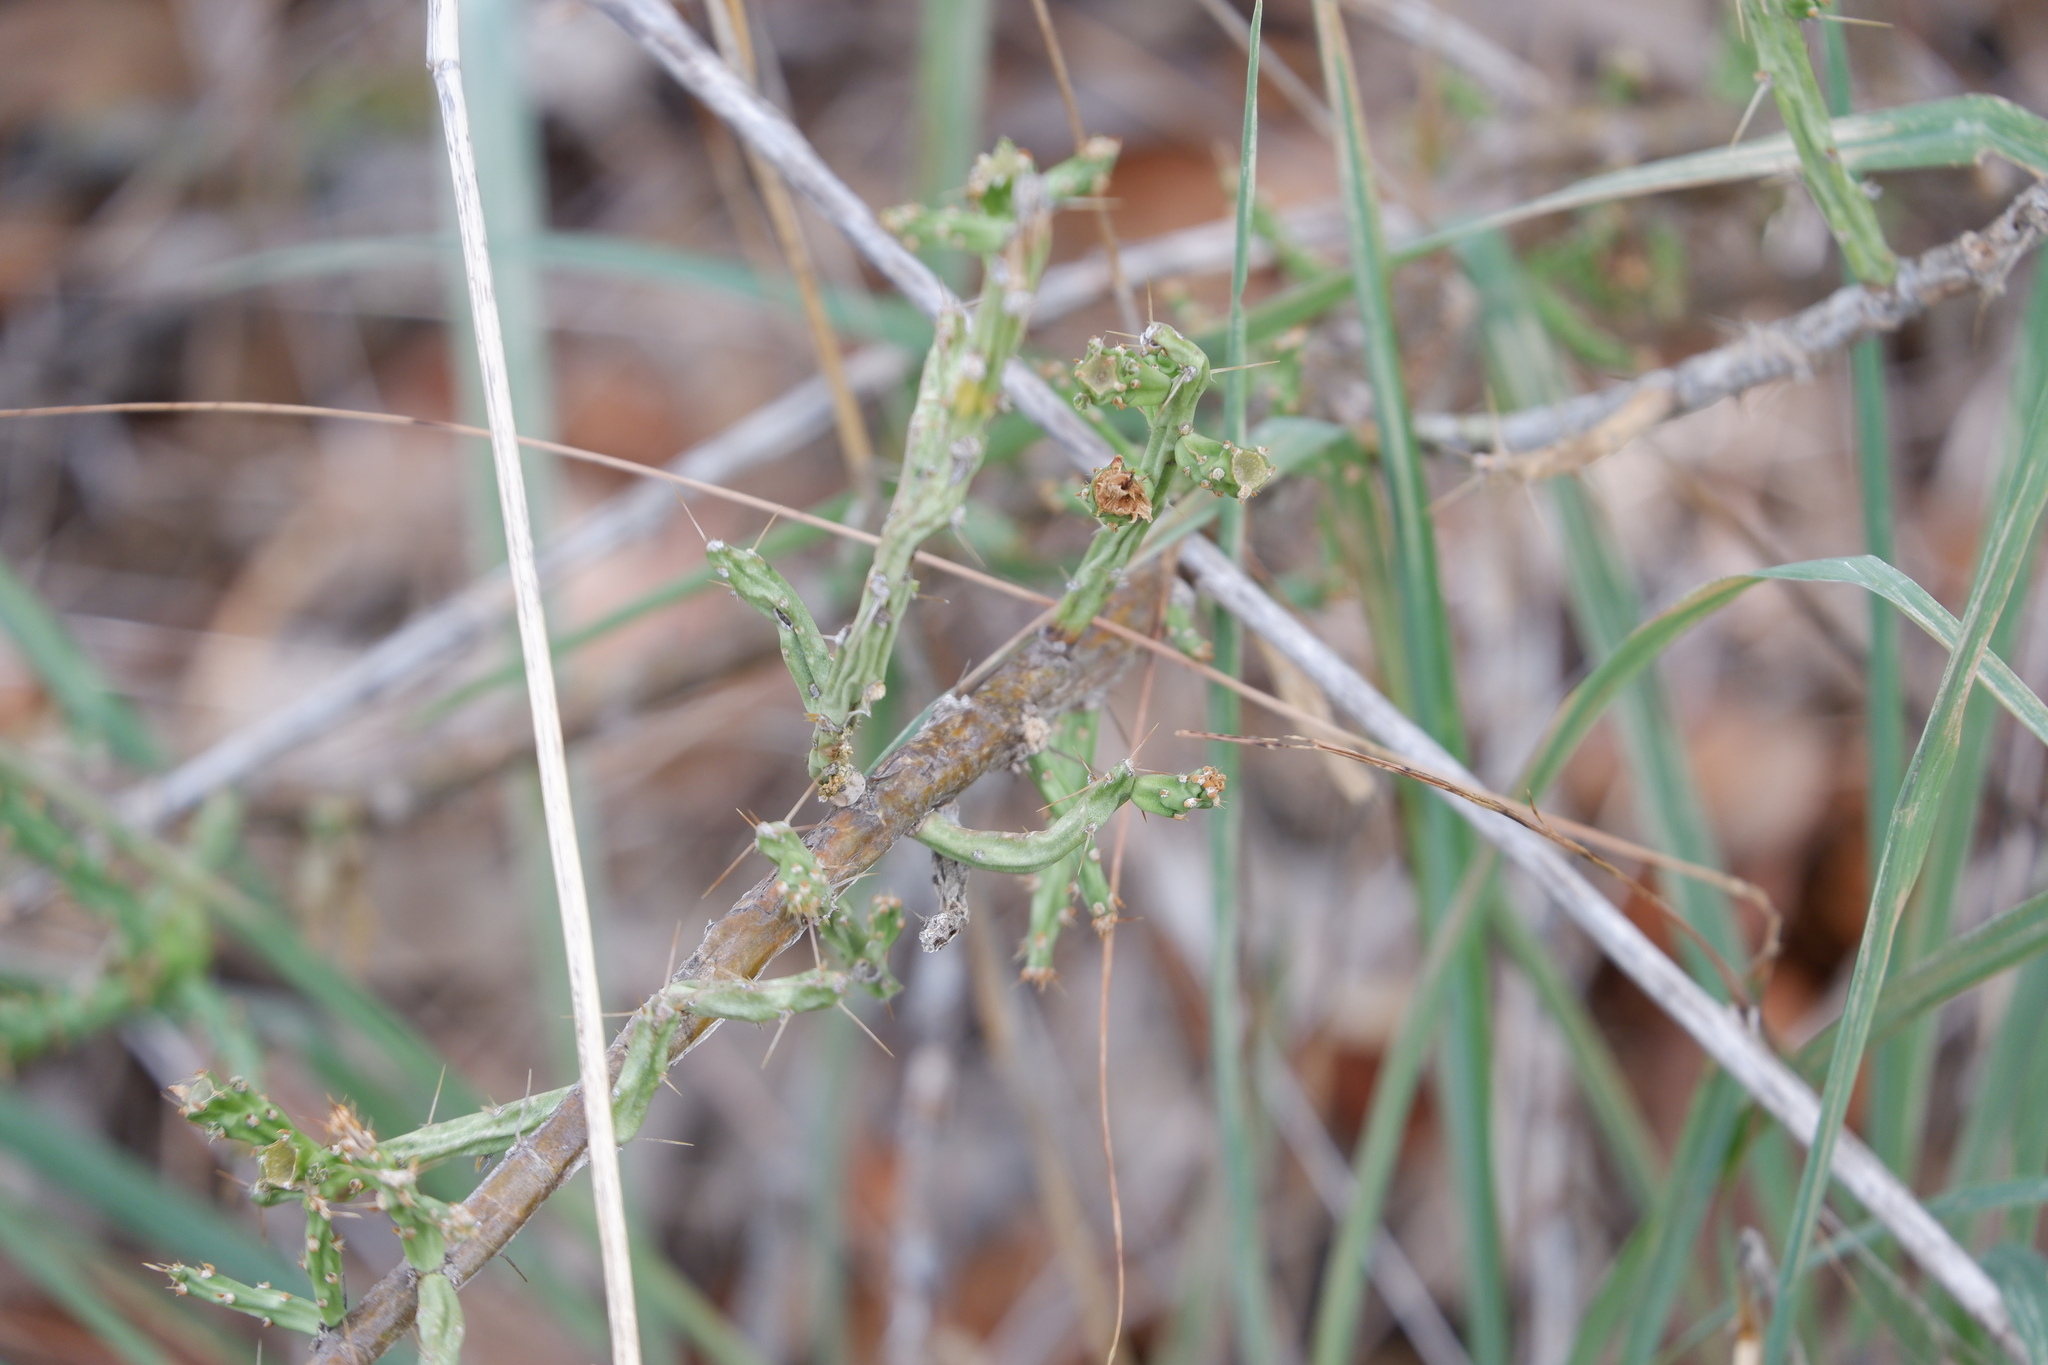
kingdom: Plantae
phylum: Tracheophyta
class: Magnoliopsida
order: Caryophyllales
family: Cactaceae
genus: Cylindropuntia
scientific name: Cylindropuntia leptocaulis
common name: Christmas cactus
